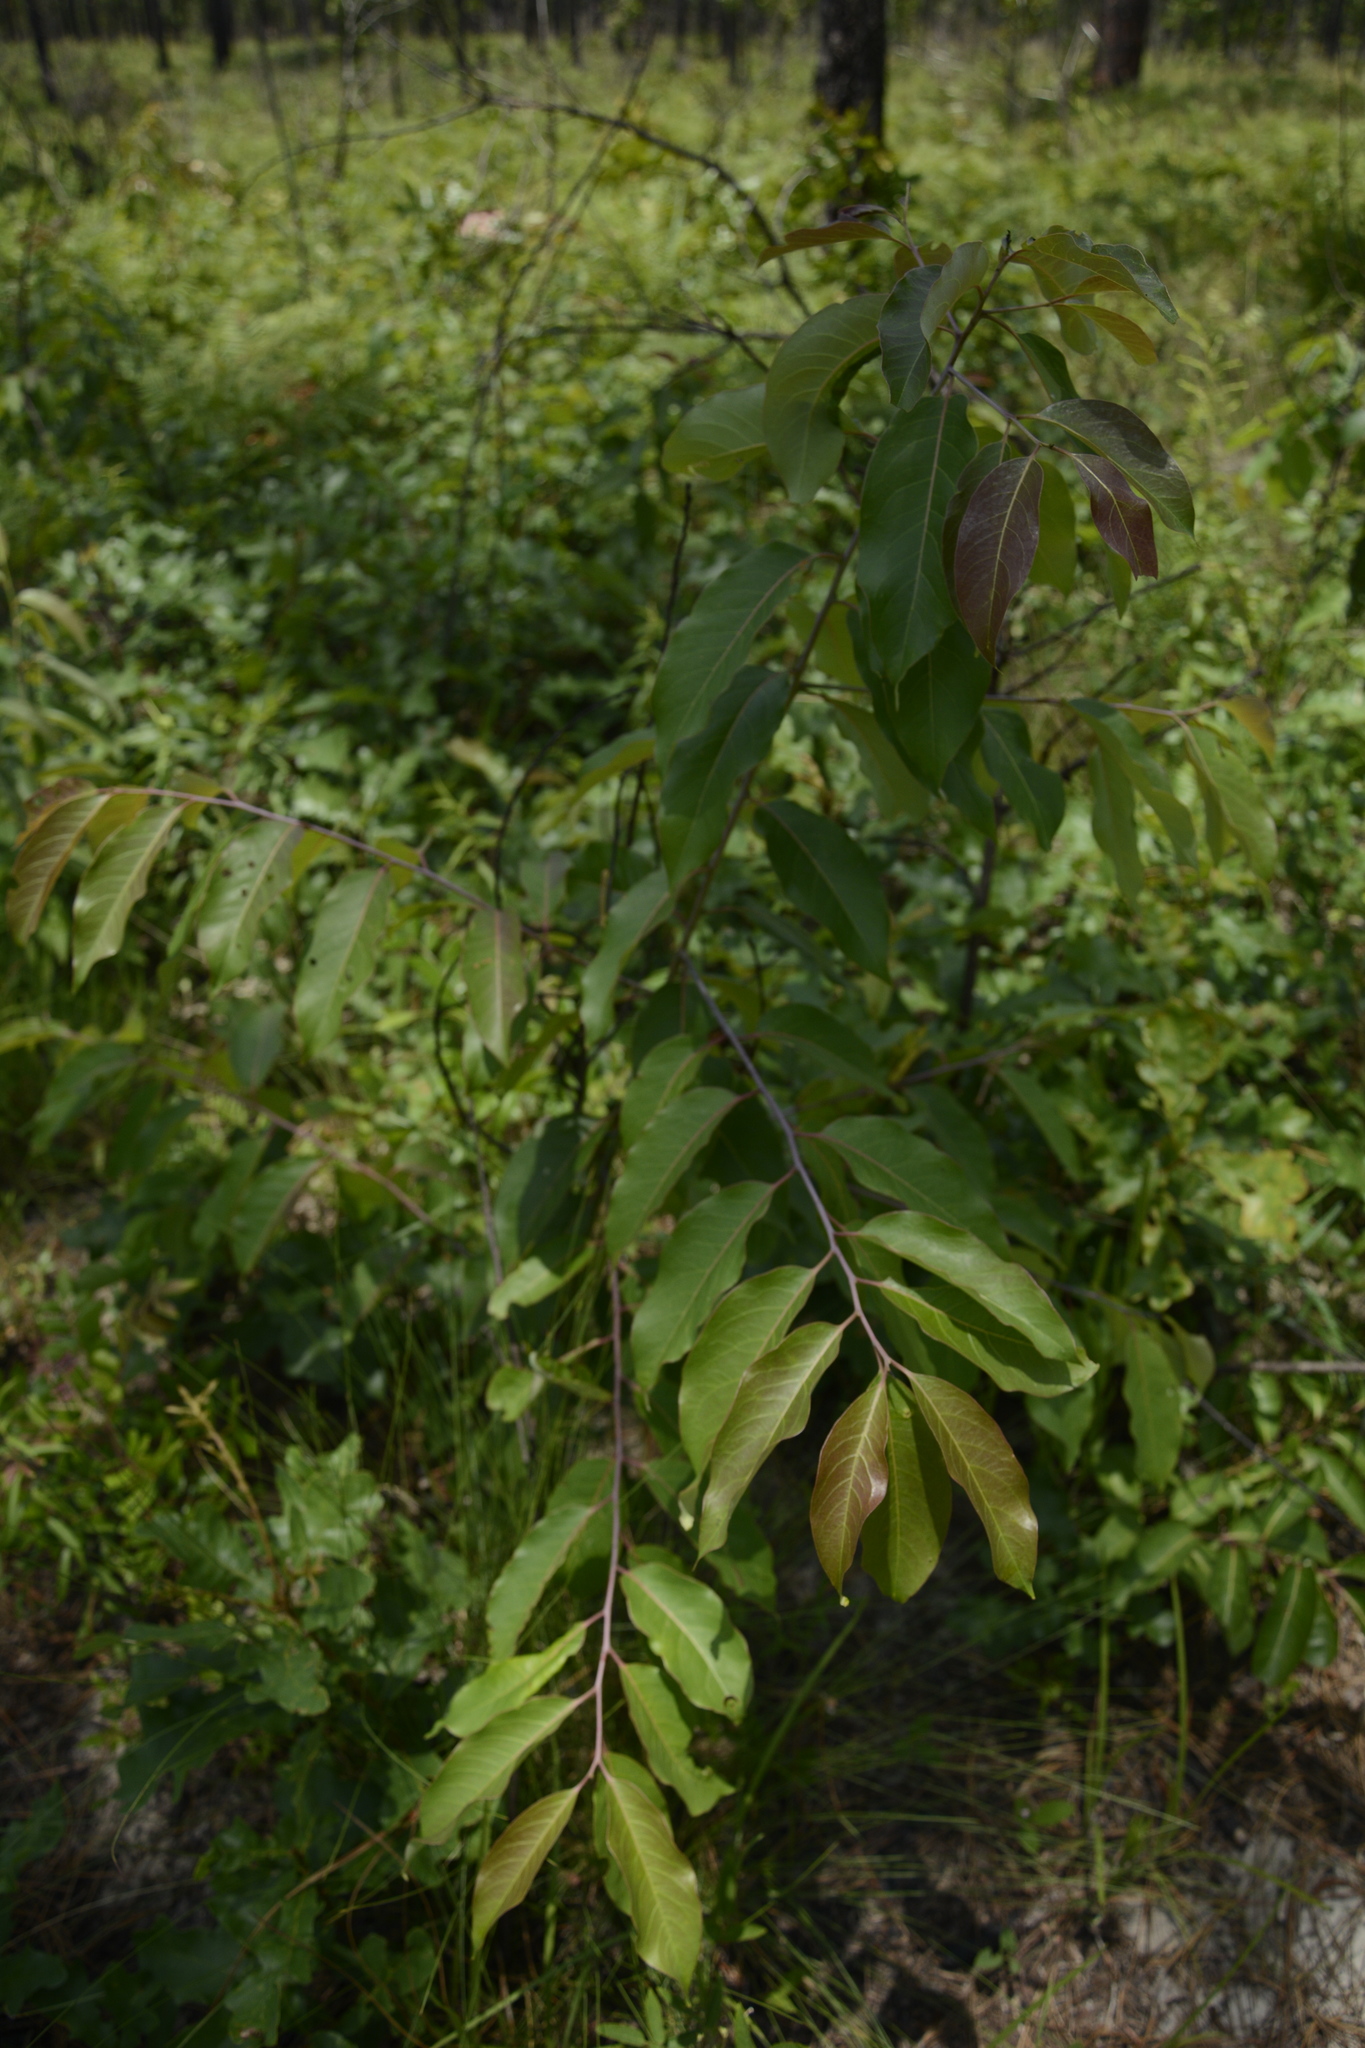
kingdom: Plantae
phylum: Tracheophyta
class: Magnoliopsida
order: Ericales
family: Ebenaceae
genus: Diospyros
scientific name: Diospyros virginiana
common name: Persimmon
